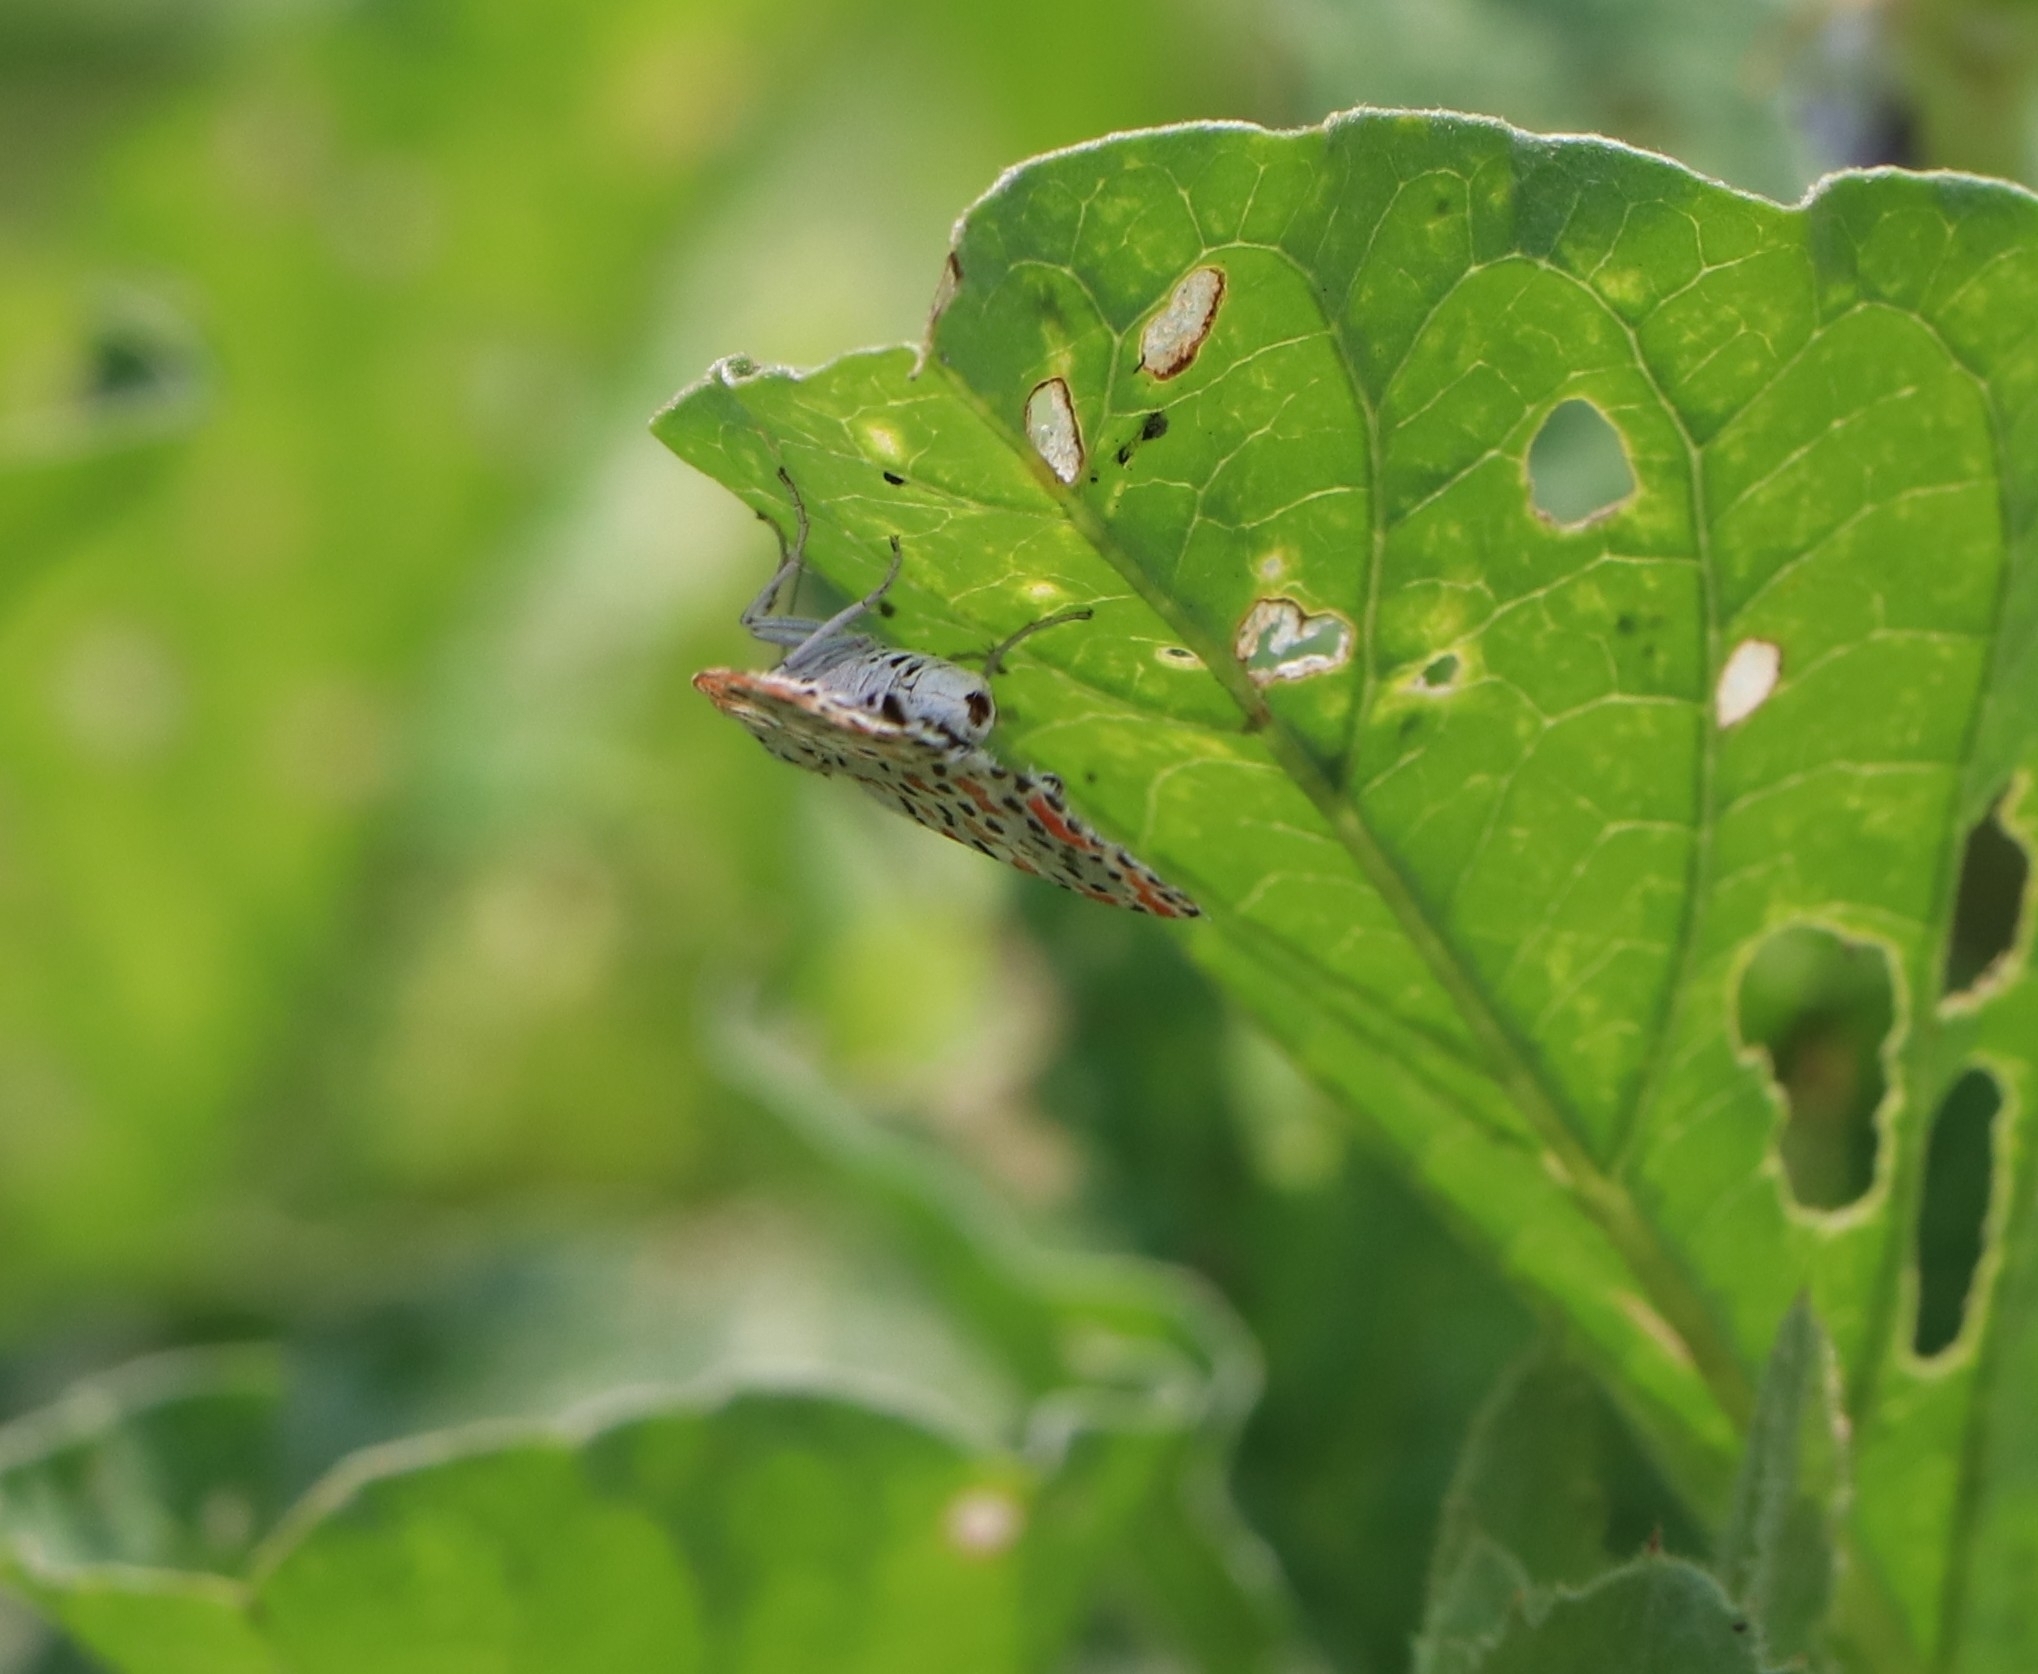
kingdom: Animalia
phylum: Arthropoda
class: Insecta
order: Lepidoptera
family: Erebidae
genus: Utetheisa
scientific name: Utetheisa lotrix
